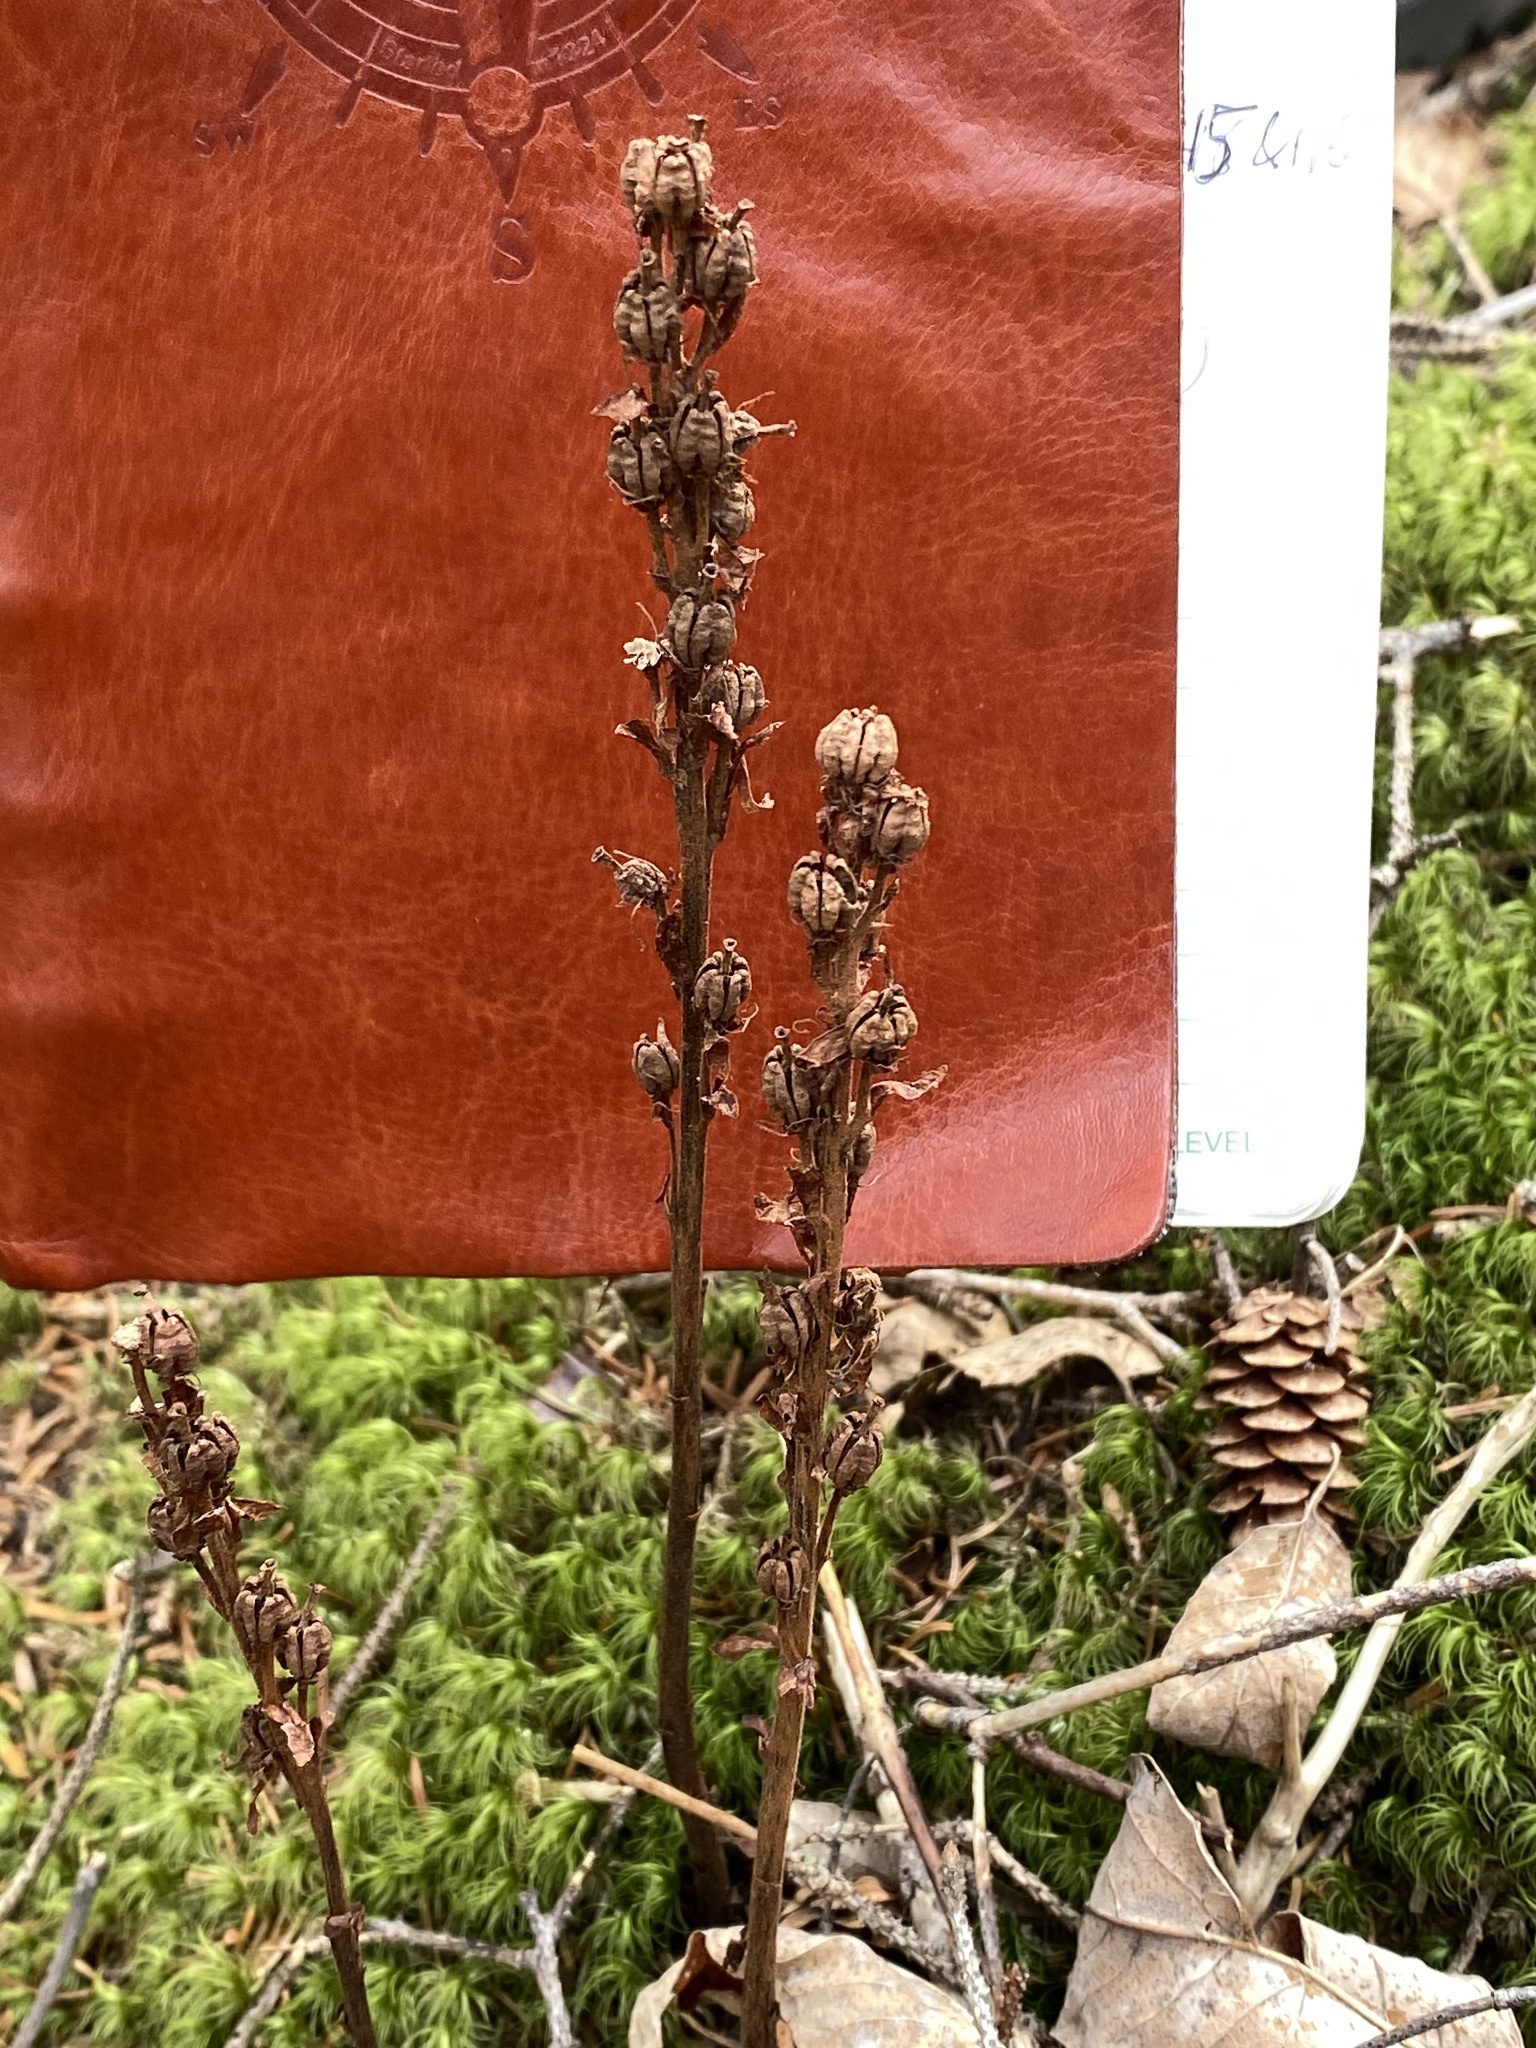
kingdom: Plantae
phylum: Tracheophyta
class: Magnoliopsida
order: Ericales
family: Ericaceae
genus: Hypopitys
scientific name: Hypopitys monotropa
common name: Yellow bird's-nest
